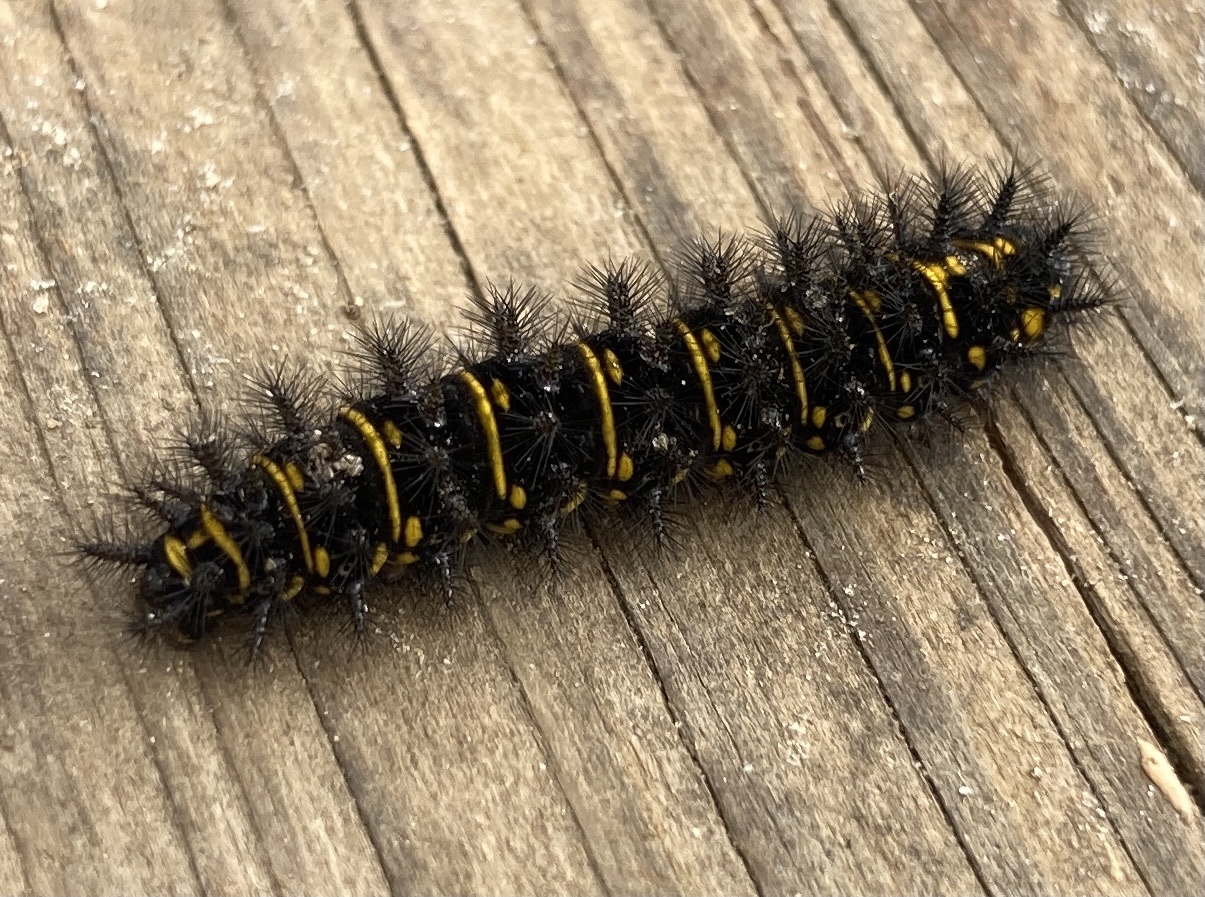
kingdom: Animalia
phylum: Arthropoda
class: Insecta
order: Lepidoptera
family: Nymphalidae
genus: Hypodryas
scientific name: Hypodryas cynthia
